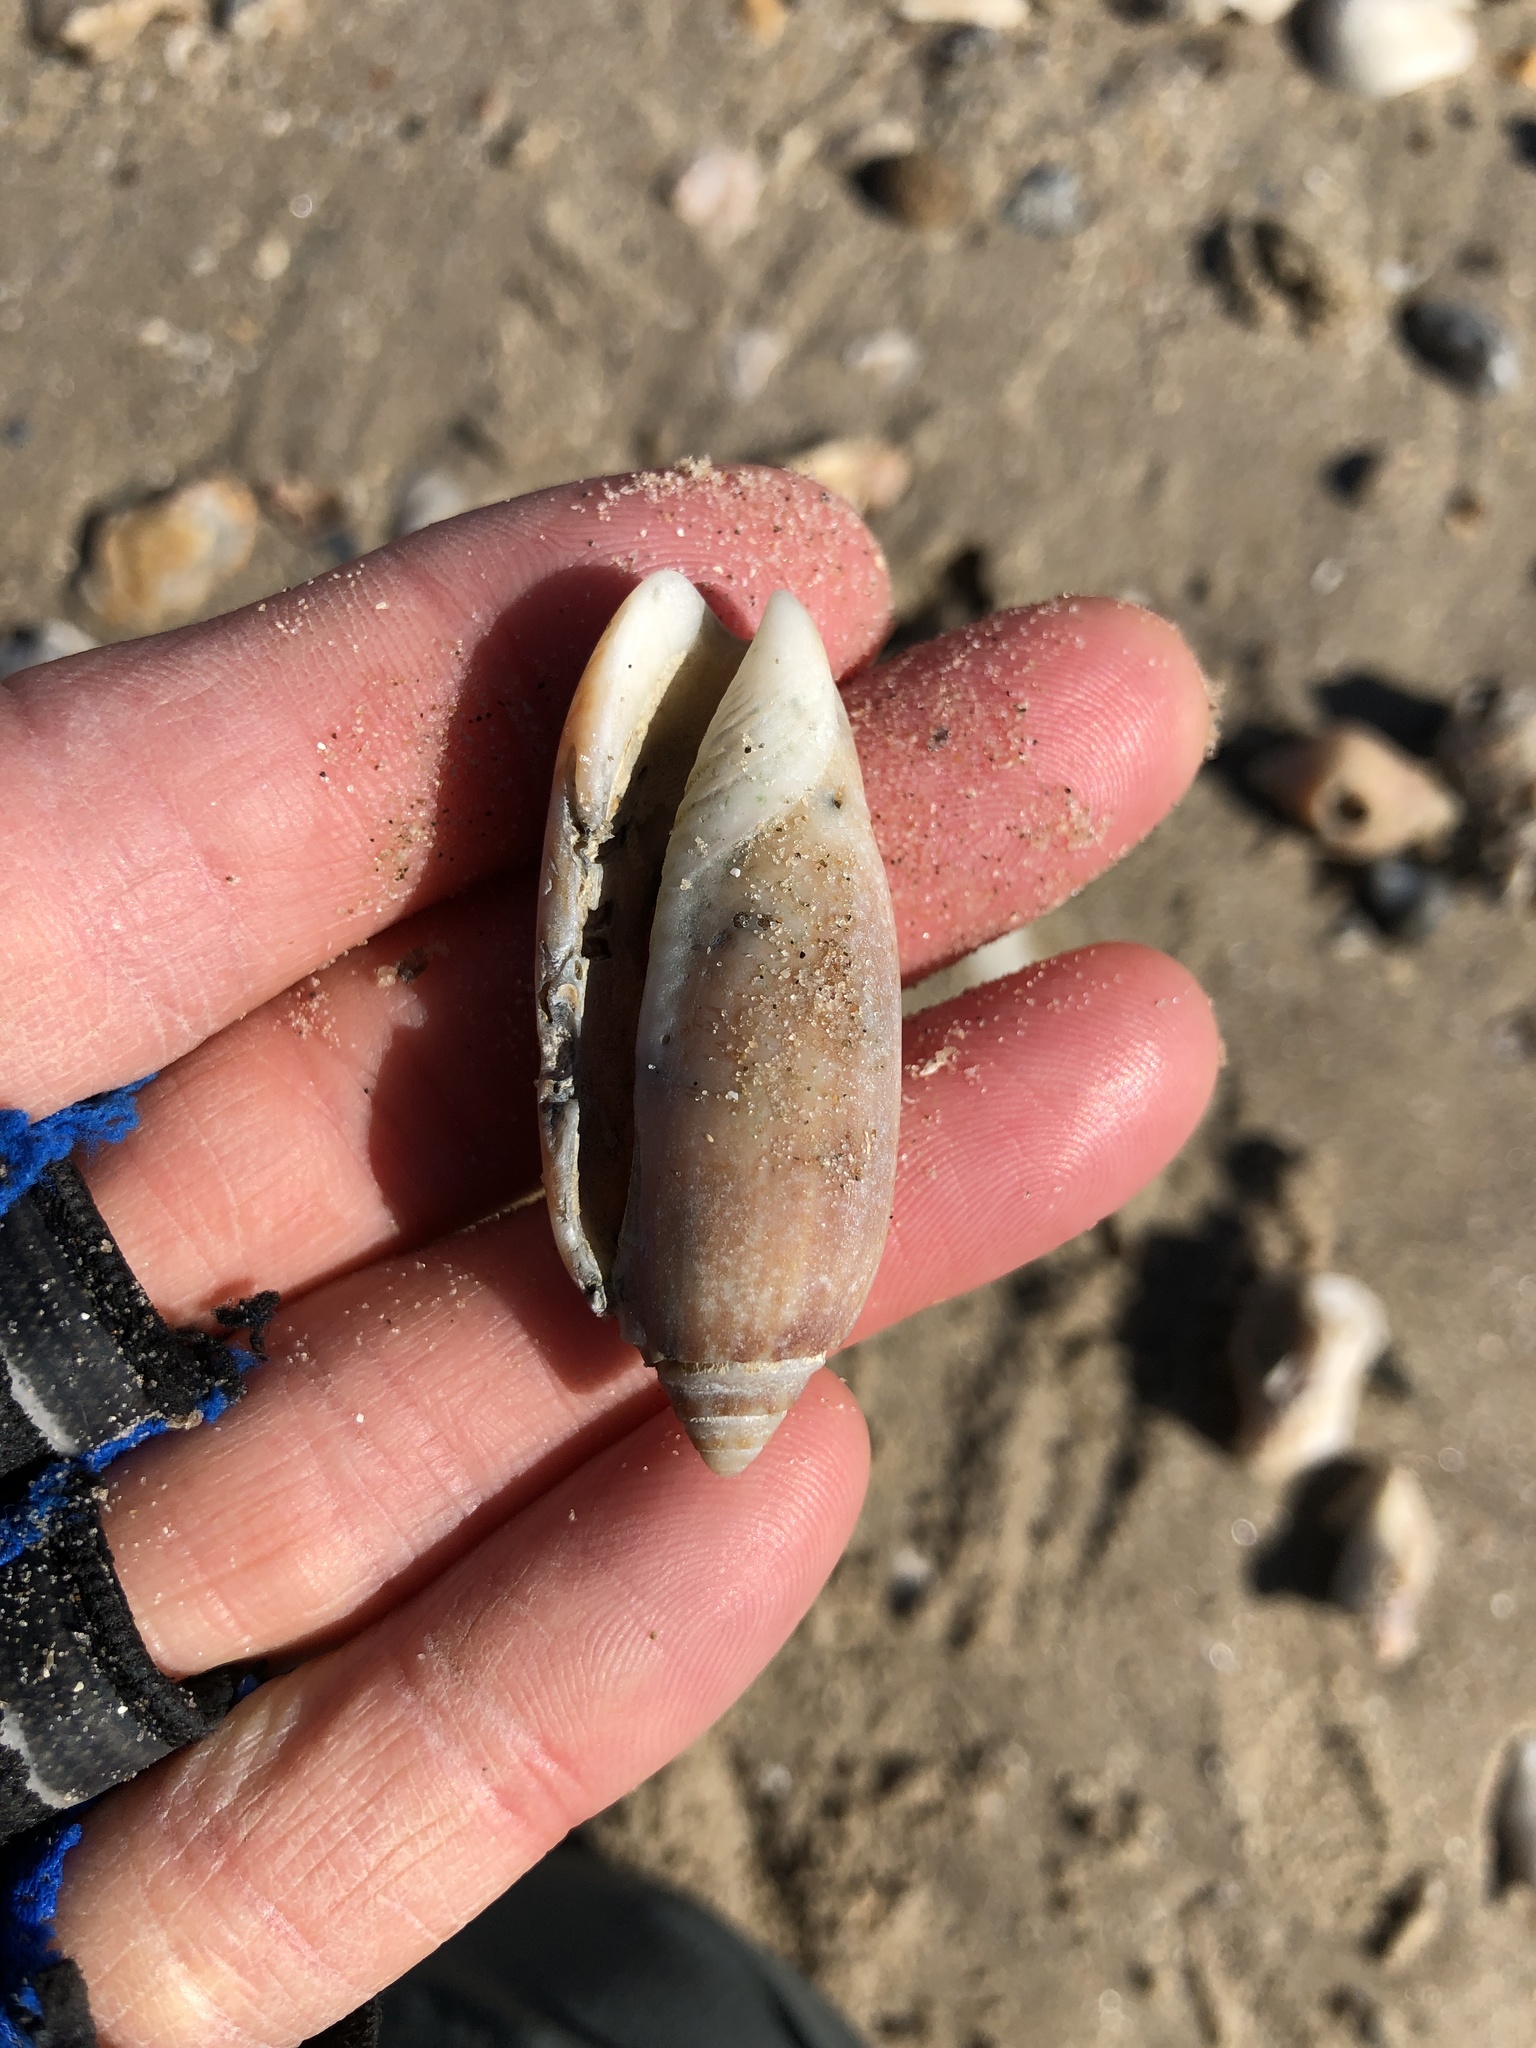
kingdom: Animalia
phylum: Mollusca
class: Gastropoda
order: Neogastropoda
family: Olividae
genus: Oliva
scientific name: Oliva sayana
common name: Lettered olive
